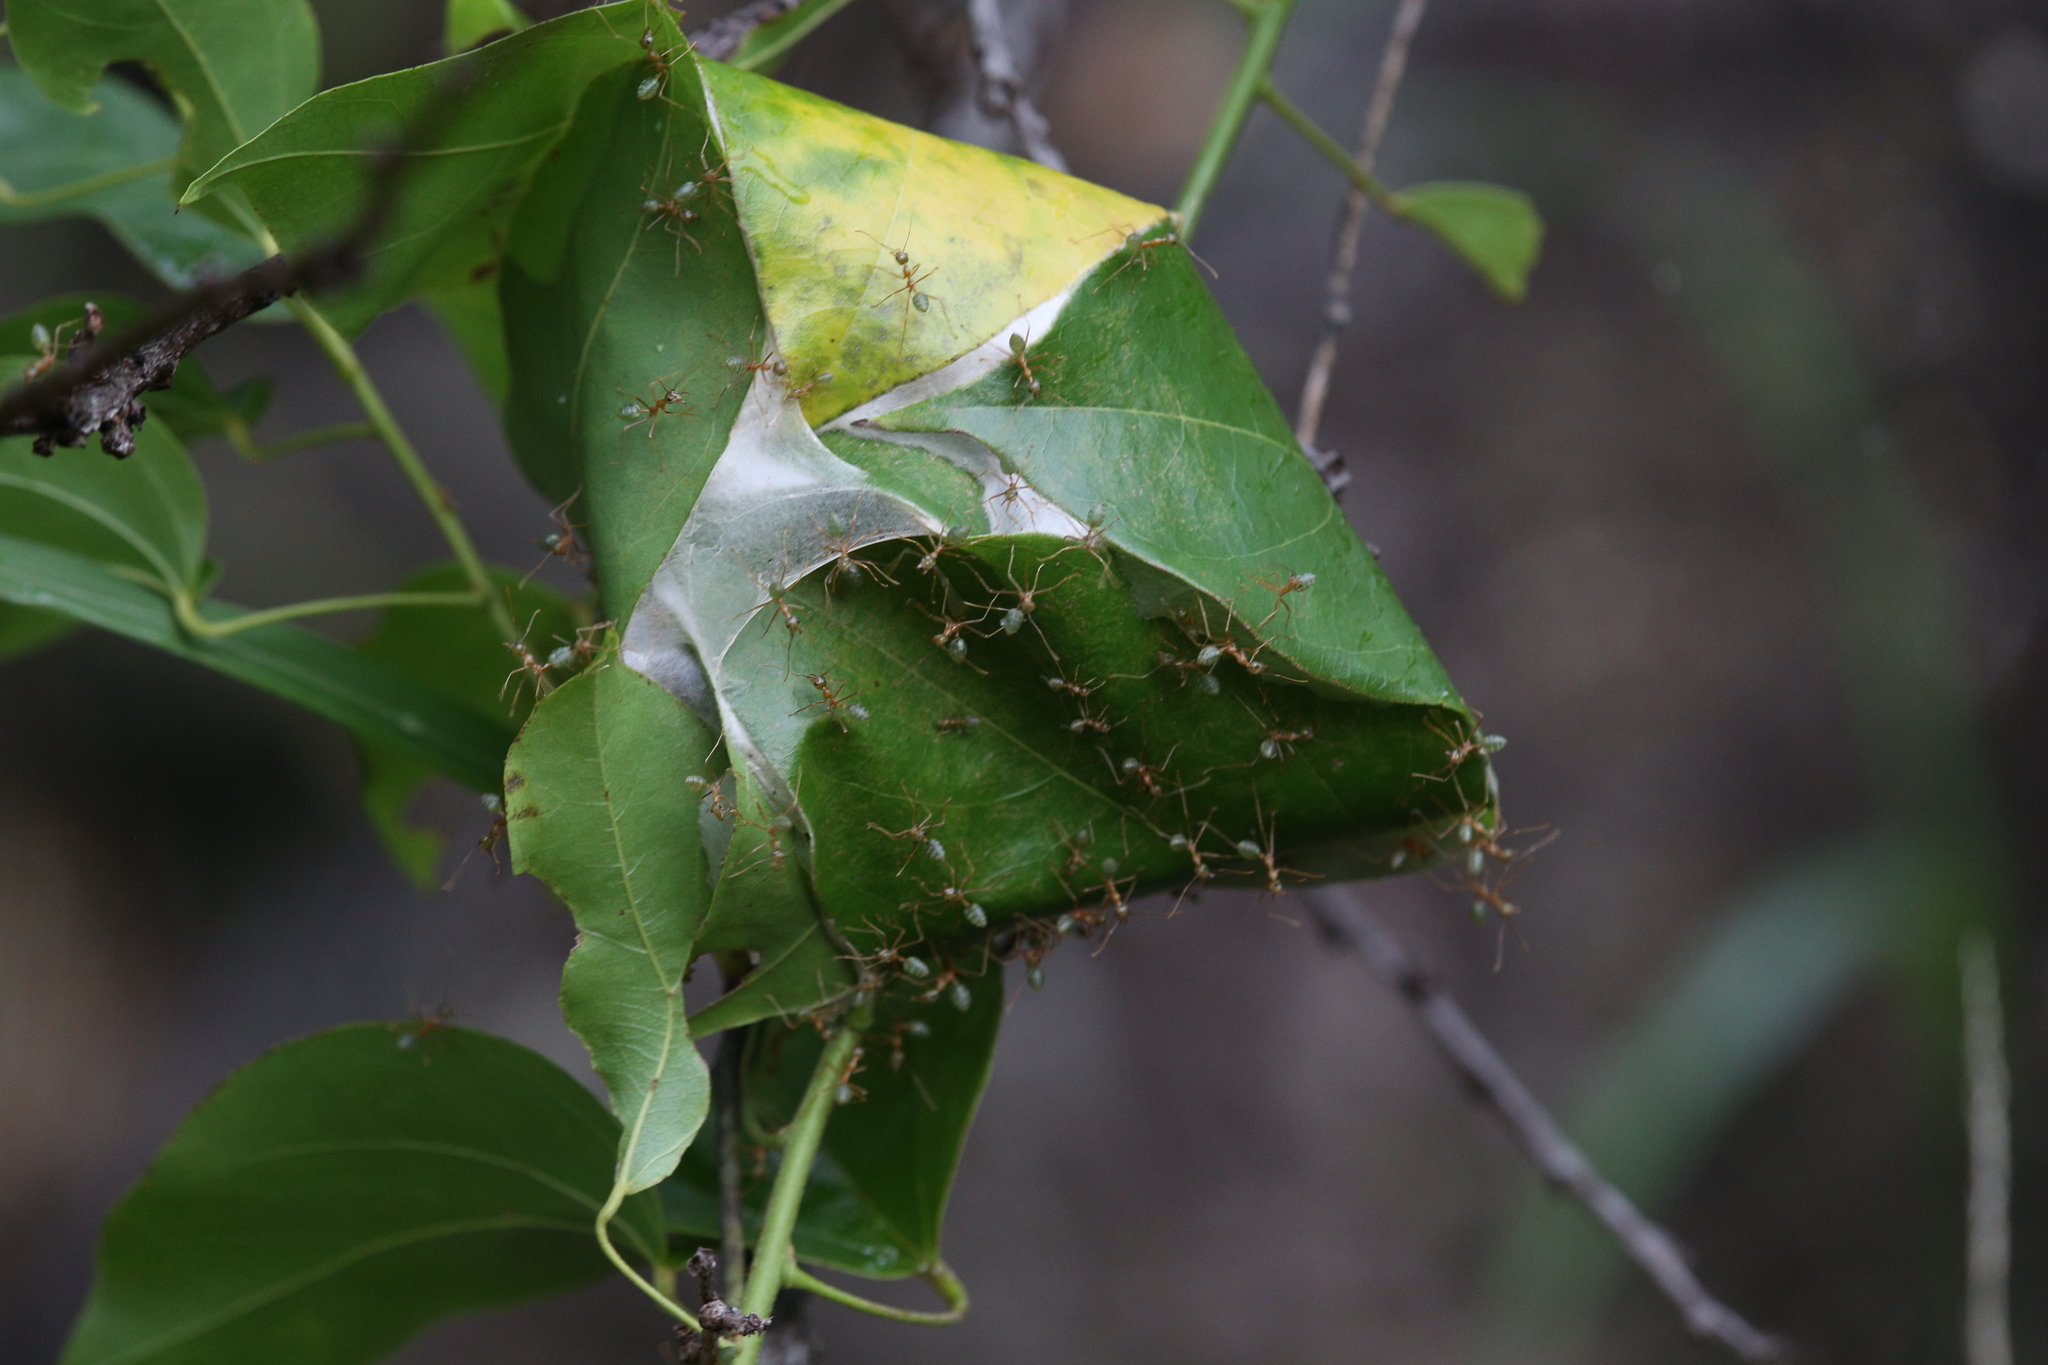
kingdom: Animalia
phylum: Arthropoda
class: Insecta
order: Hymenoptera
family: Formicidae
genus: Oecophylla
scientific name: Oecophylla smaragdina
